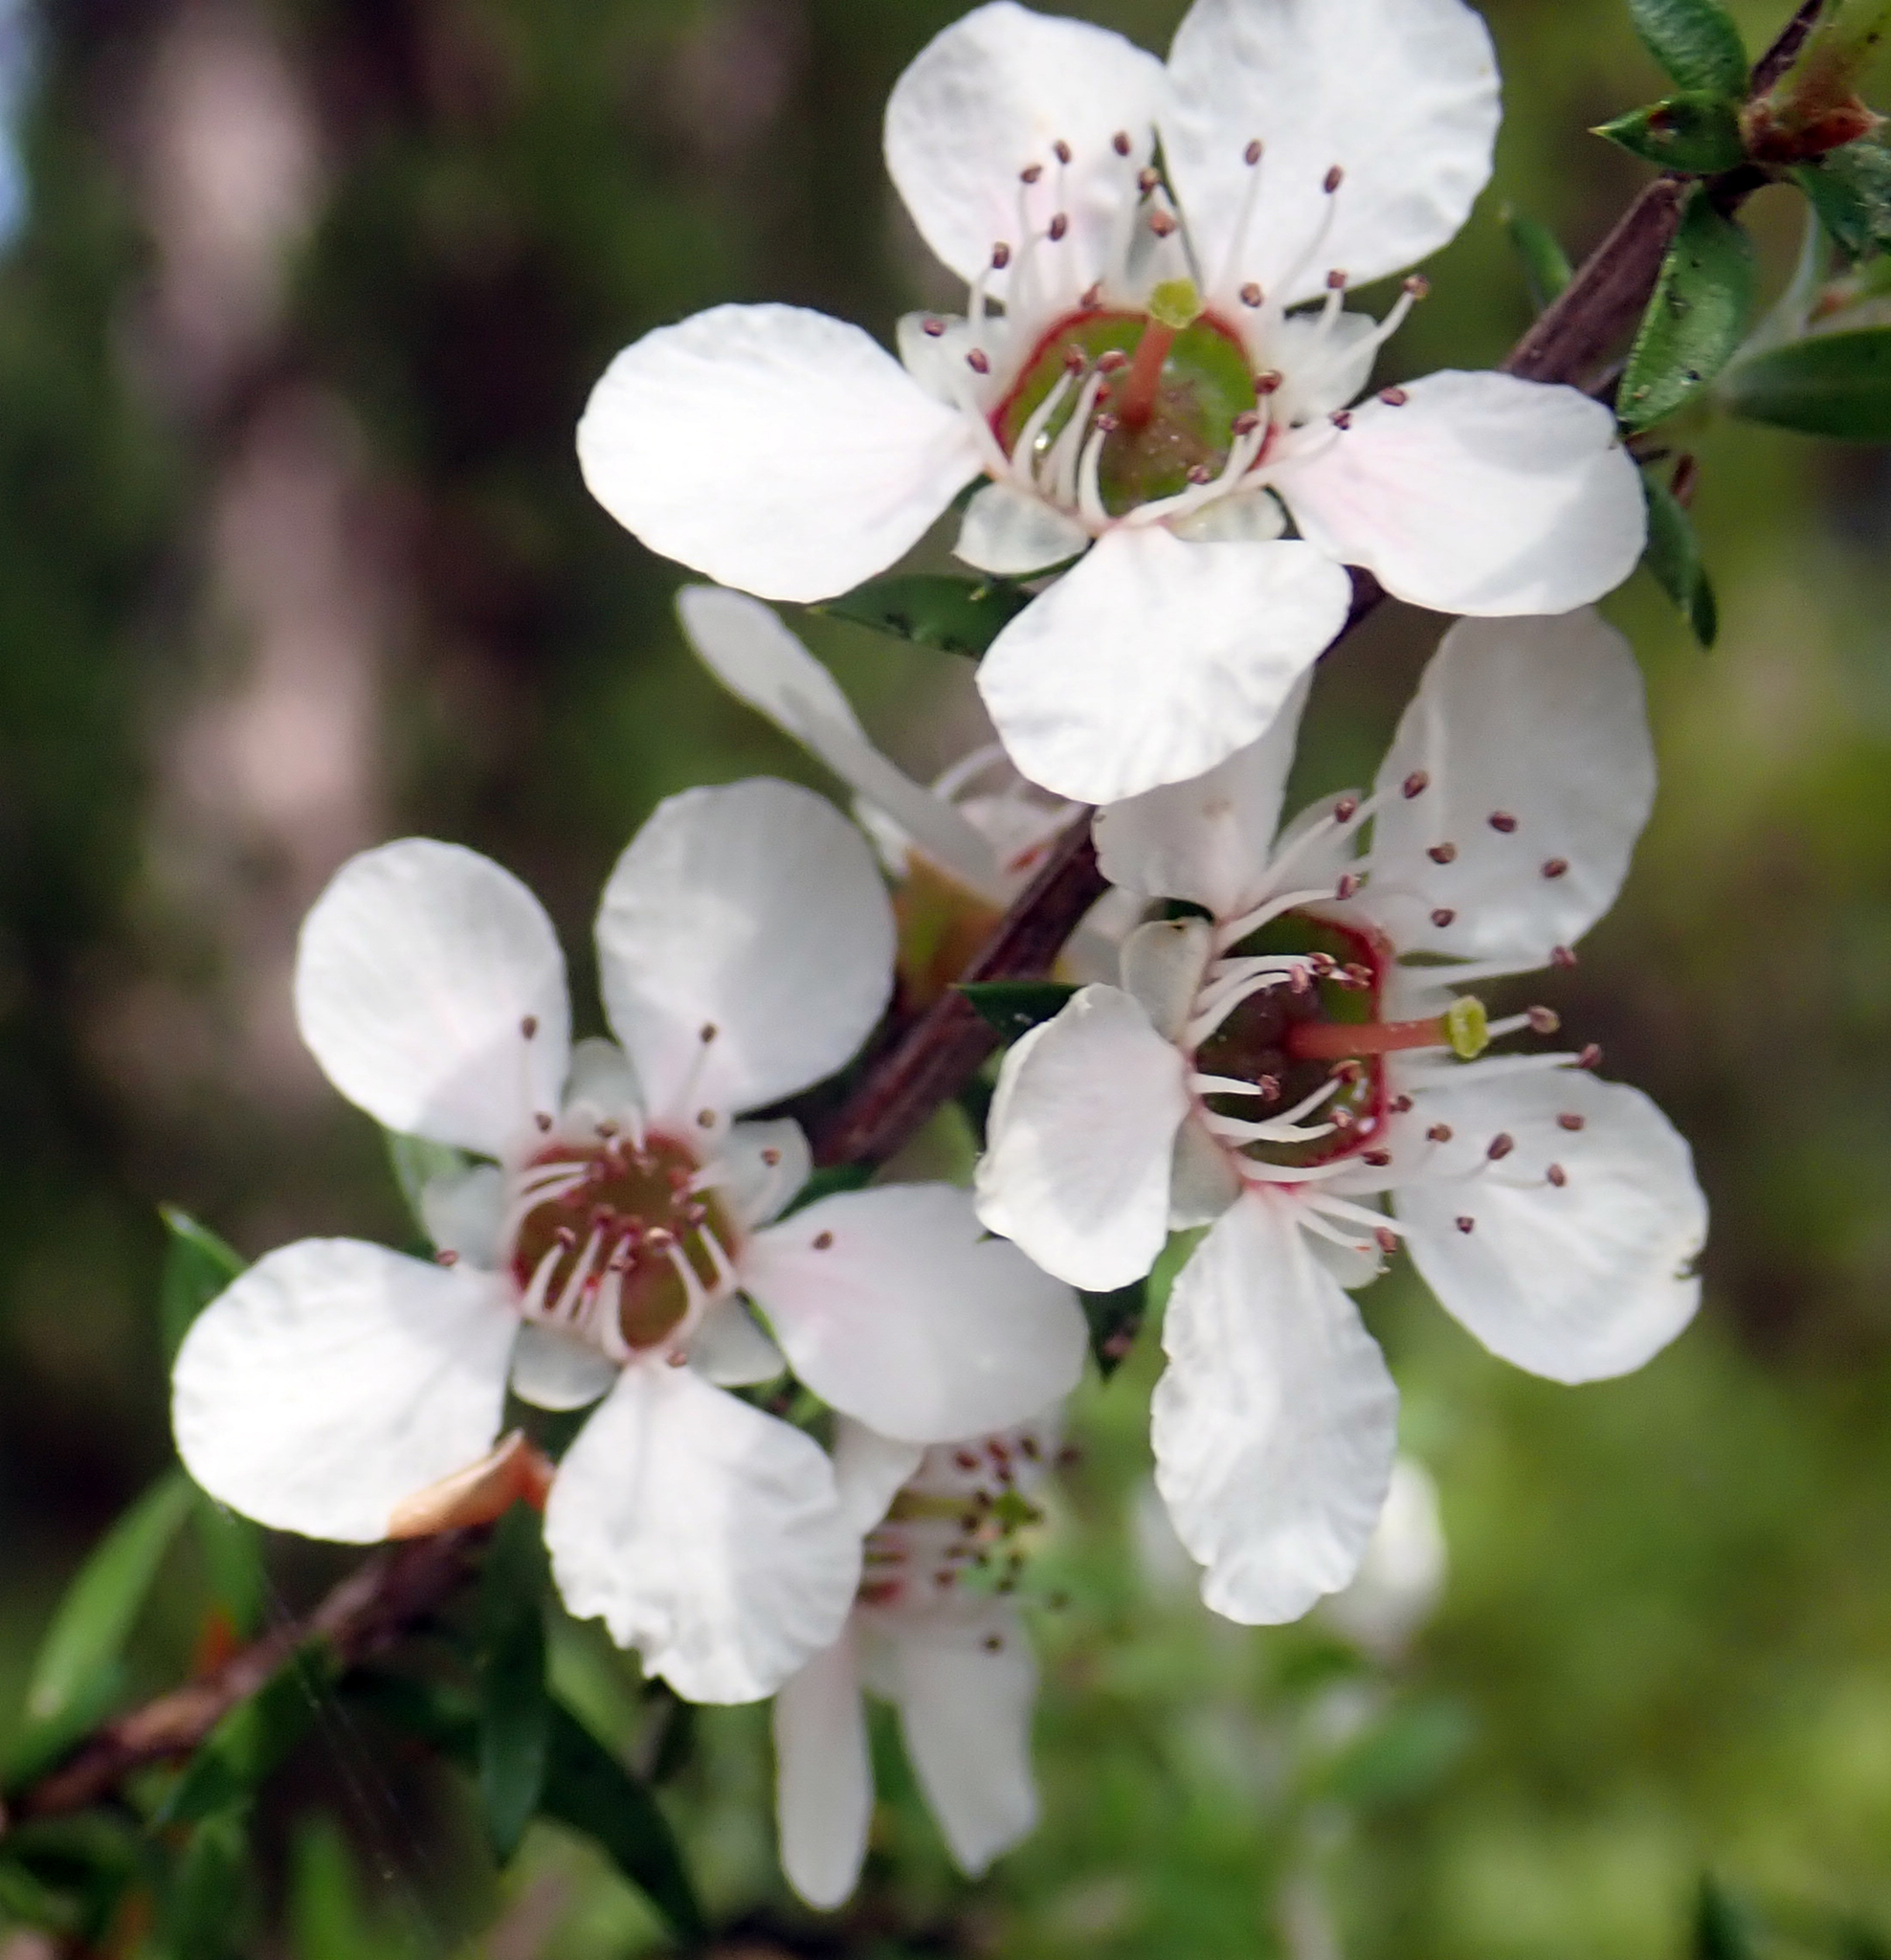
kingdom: Plantae
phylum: Tracheophyta
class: Magnoliopsida
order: Myrtales
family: Myrtaceae
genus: Leptospermum
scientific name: Leptospermum scoparium
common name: Broom tea-tree
